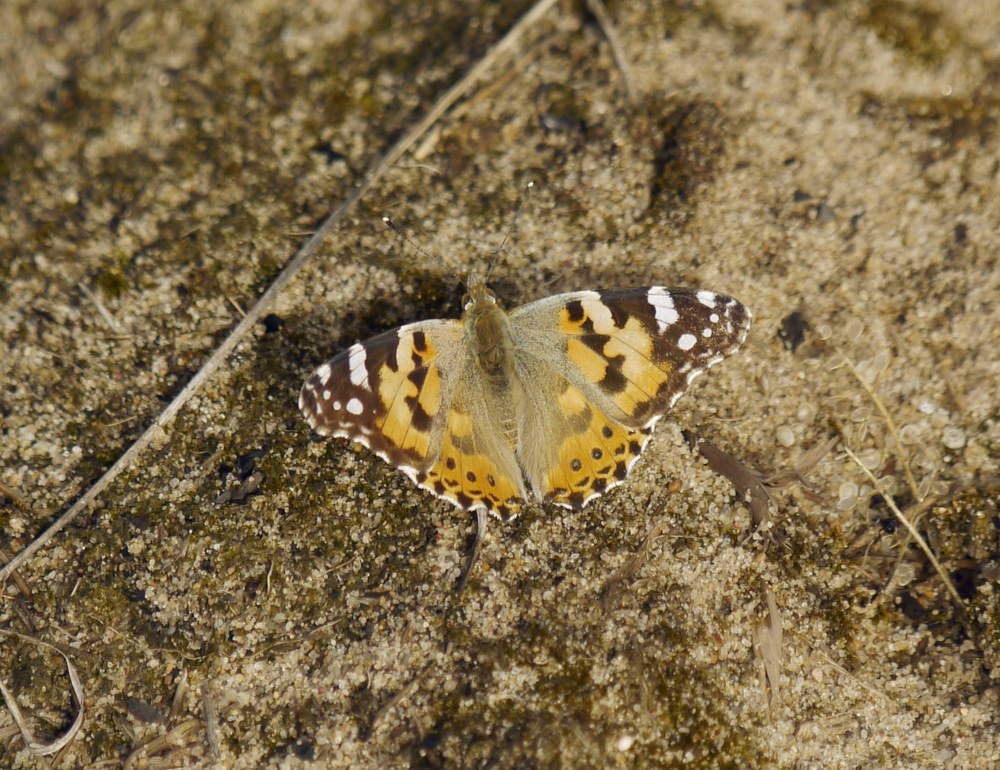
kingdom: Animalia
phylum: Arthropoda
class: Insecta
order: Lepidoptera
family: Nymphalidae
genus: Vanessa
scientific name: Vanessa cardui
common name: Painted lady
